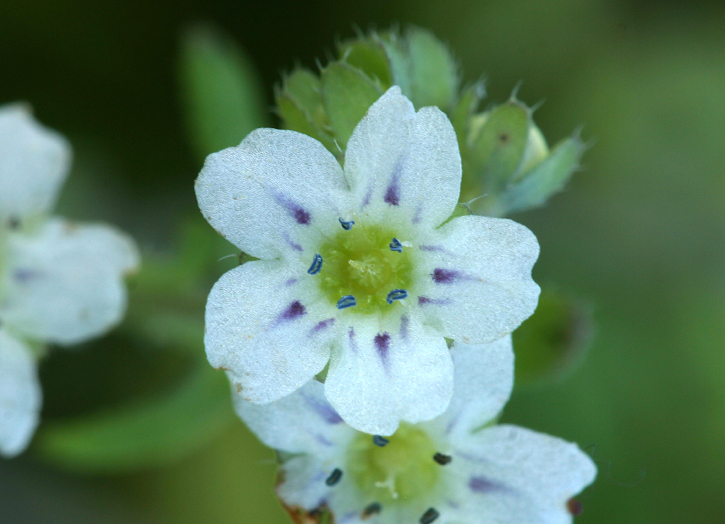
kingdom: Plantae
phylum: Tracheophyta
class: Magnoliopsida
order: Boraginales
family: Hydrophyllaceae
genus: Pholistoma
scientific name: Pholistoma membranaceum
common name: White fiesta-flower
